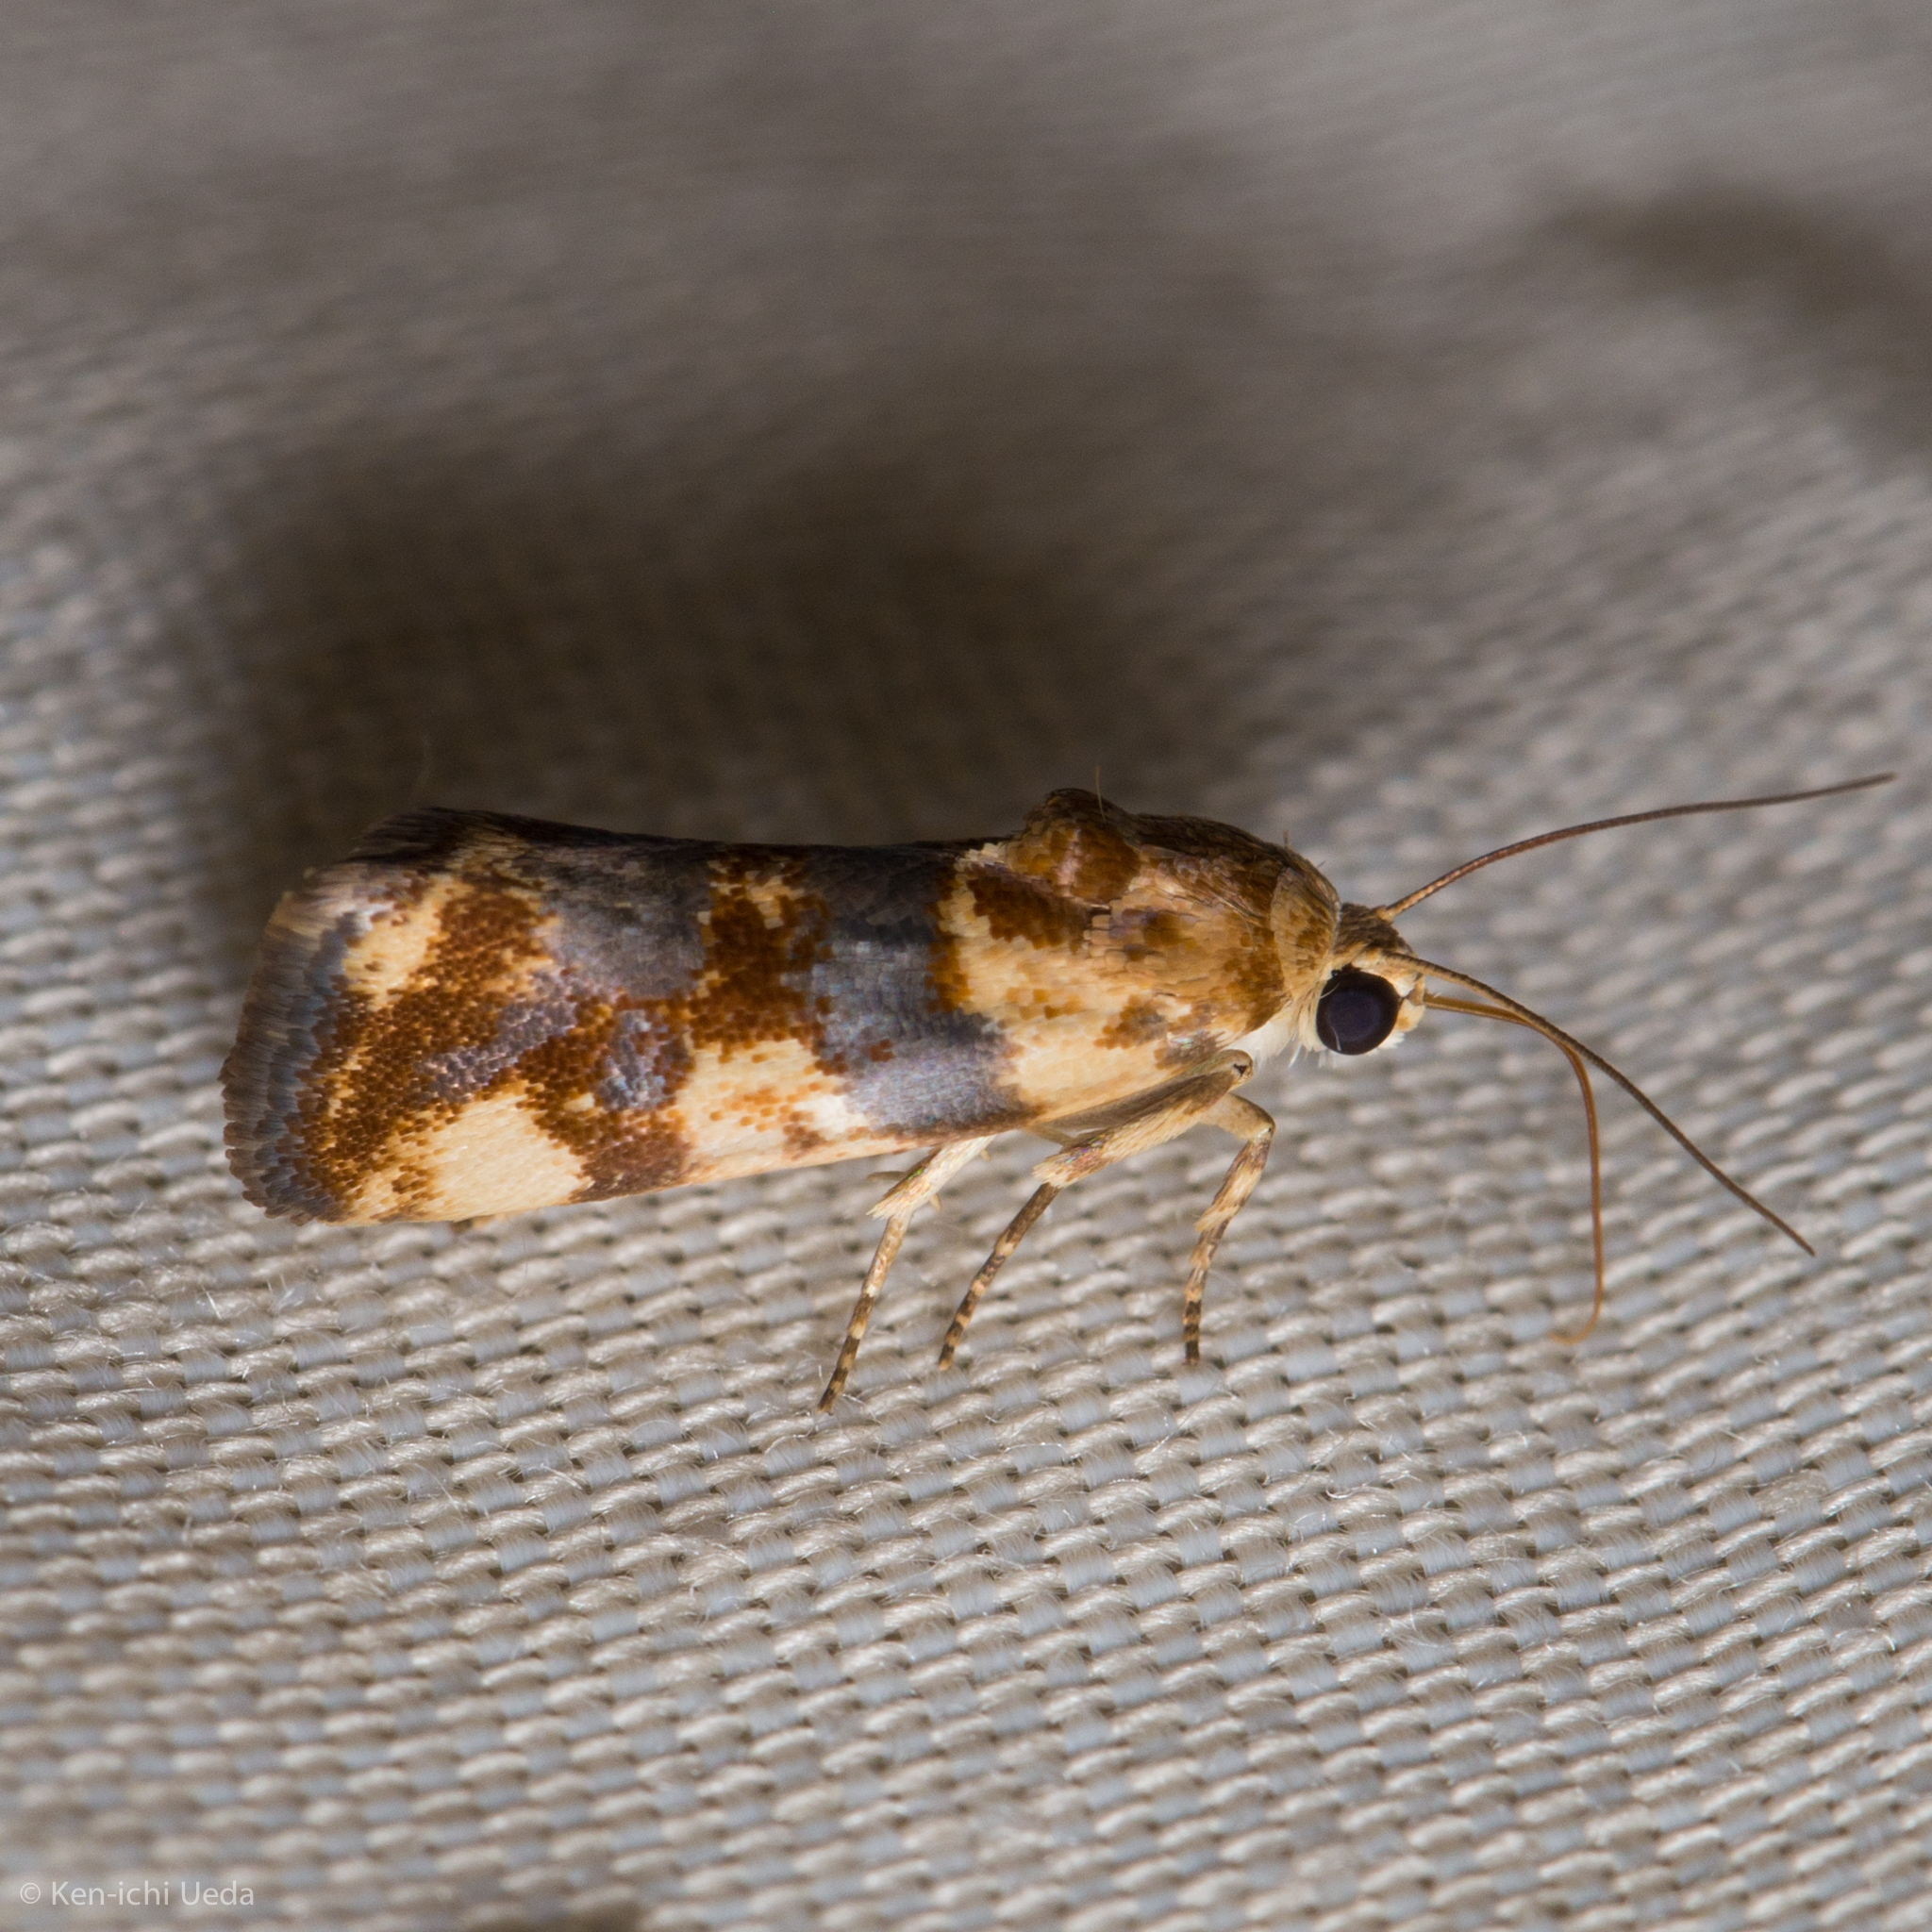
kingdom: Animalia
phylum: Arthropoda
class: Insecta
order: Lepidoptera
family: Noctuidae
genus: Acontia
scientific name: Acontia obatra
